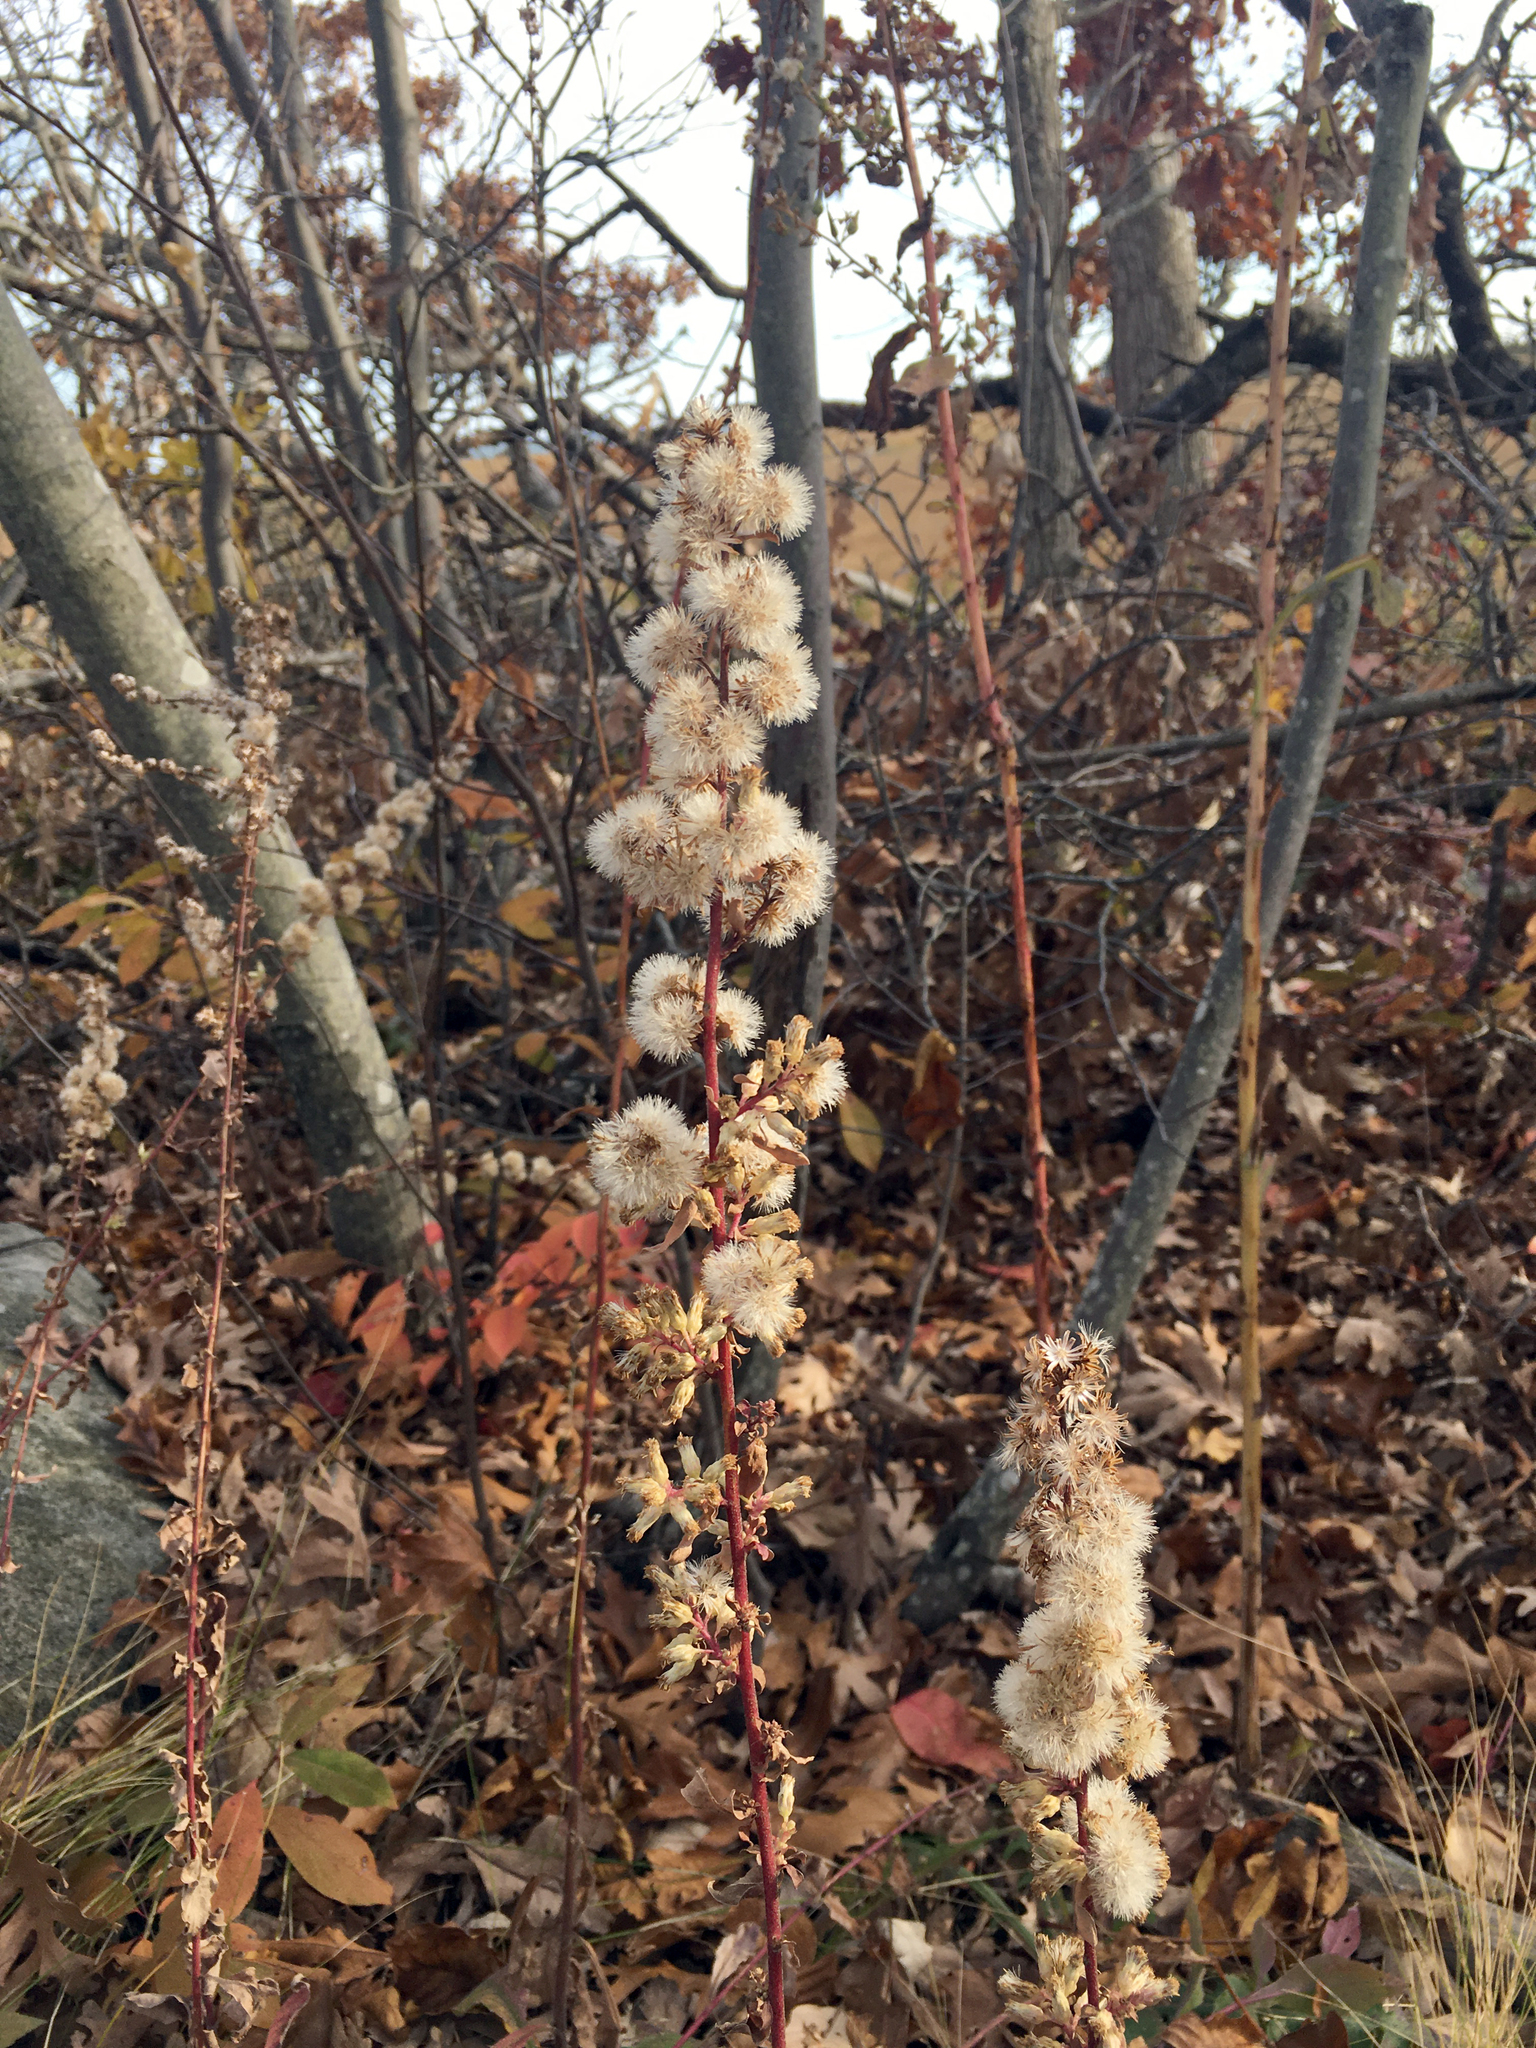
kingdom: Plantae
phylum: Tracheophyta
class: Magnoliopsida
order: Asterales
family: Asteraceae
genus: Solidago
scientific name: Solidago bicolor
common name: Silverrod
